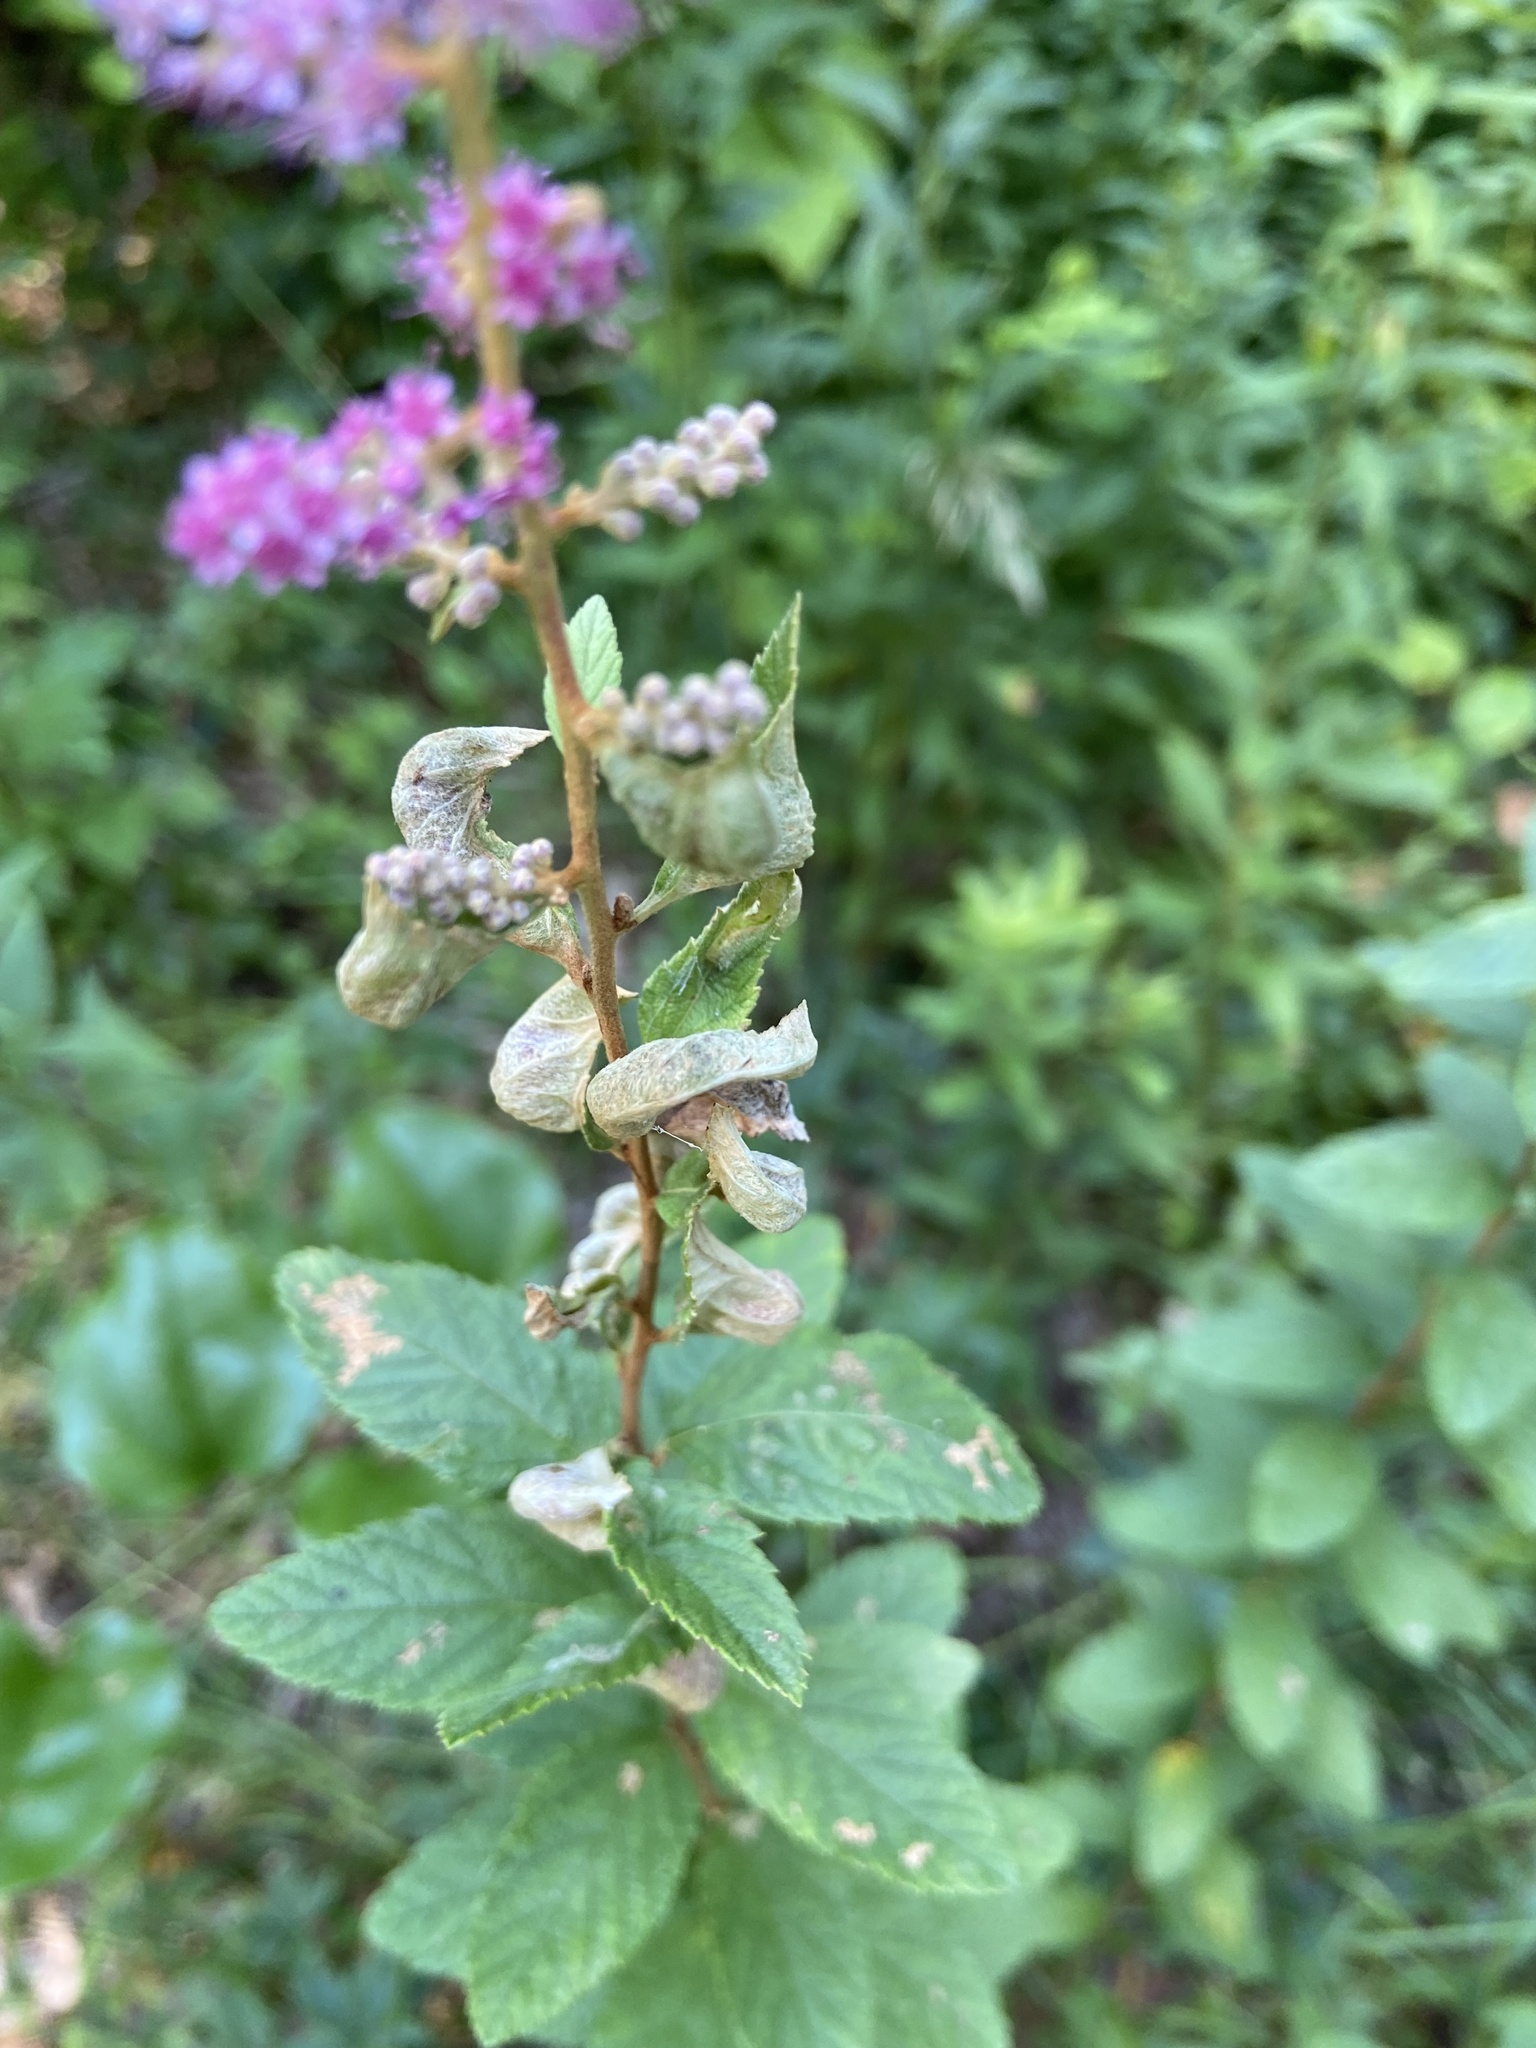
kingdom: Plantae
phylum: Tracheophyta
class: Magnoliopsida
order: Rosales
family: Rosaceae
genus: Spiraea
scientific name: Spiraea tomentosa
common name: Hardhack
